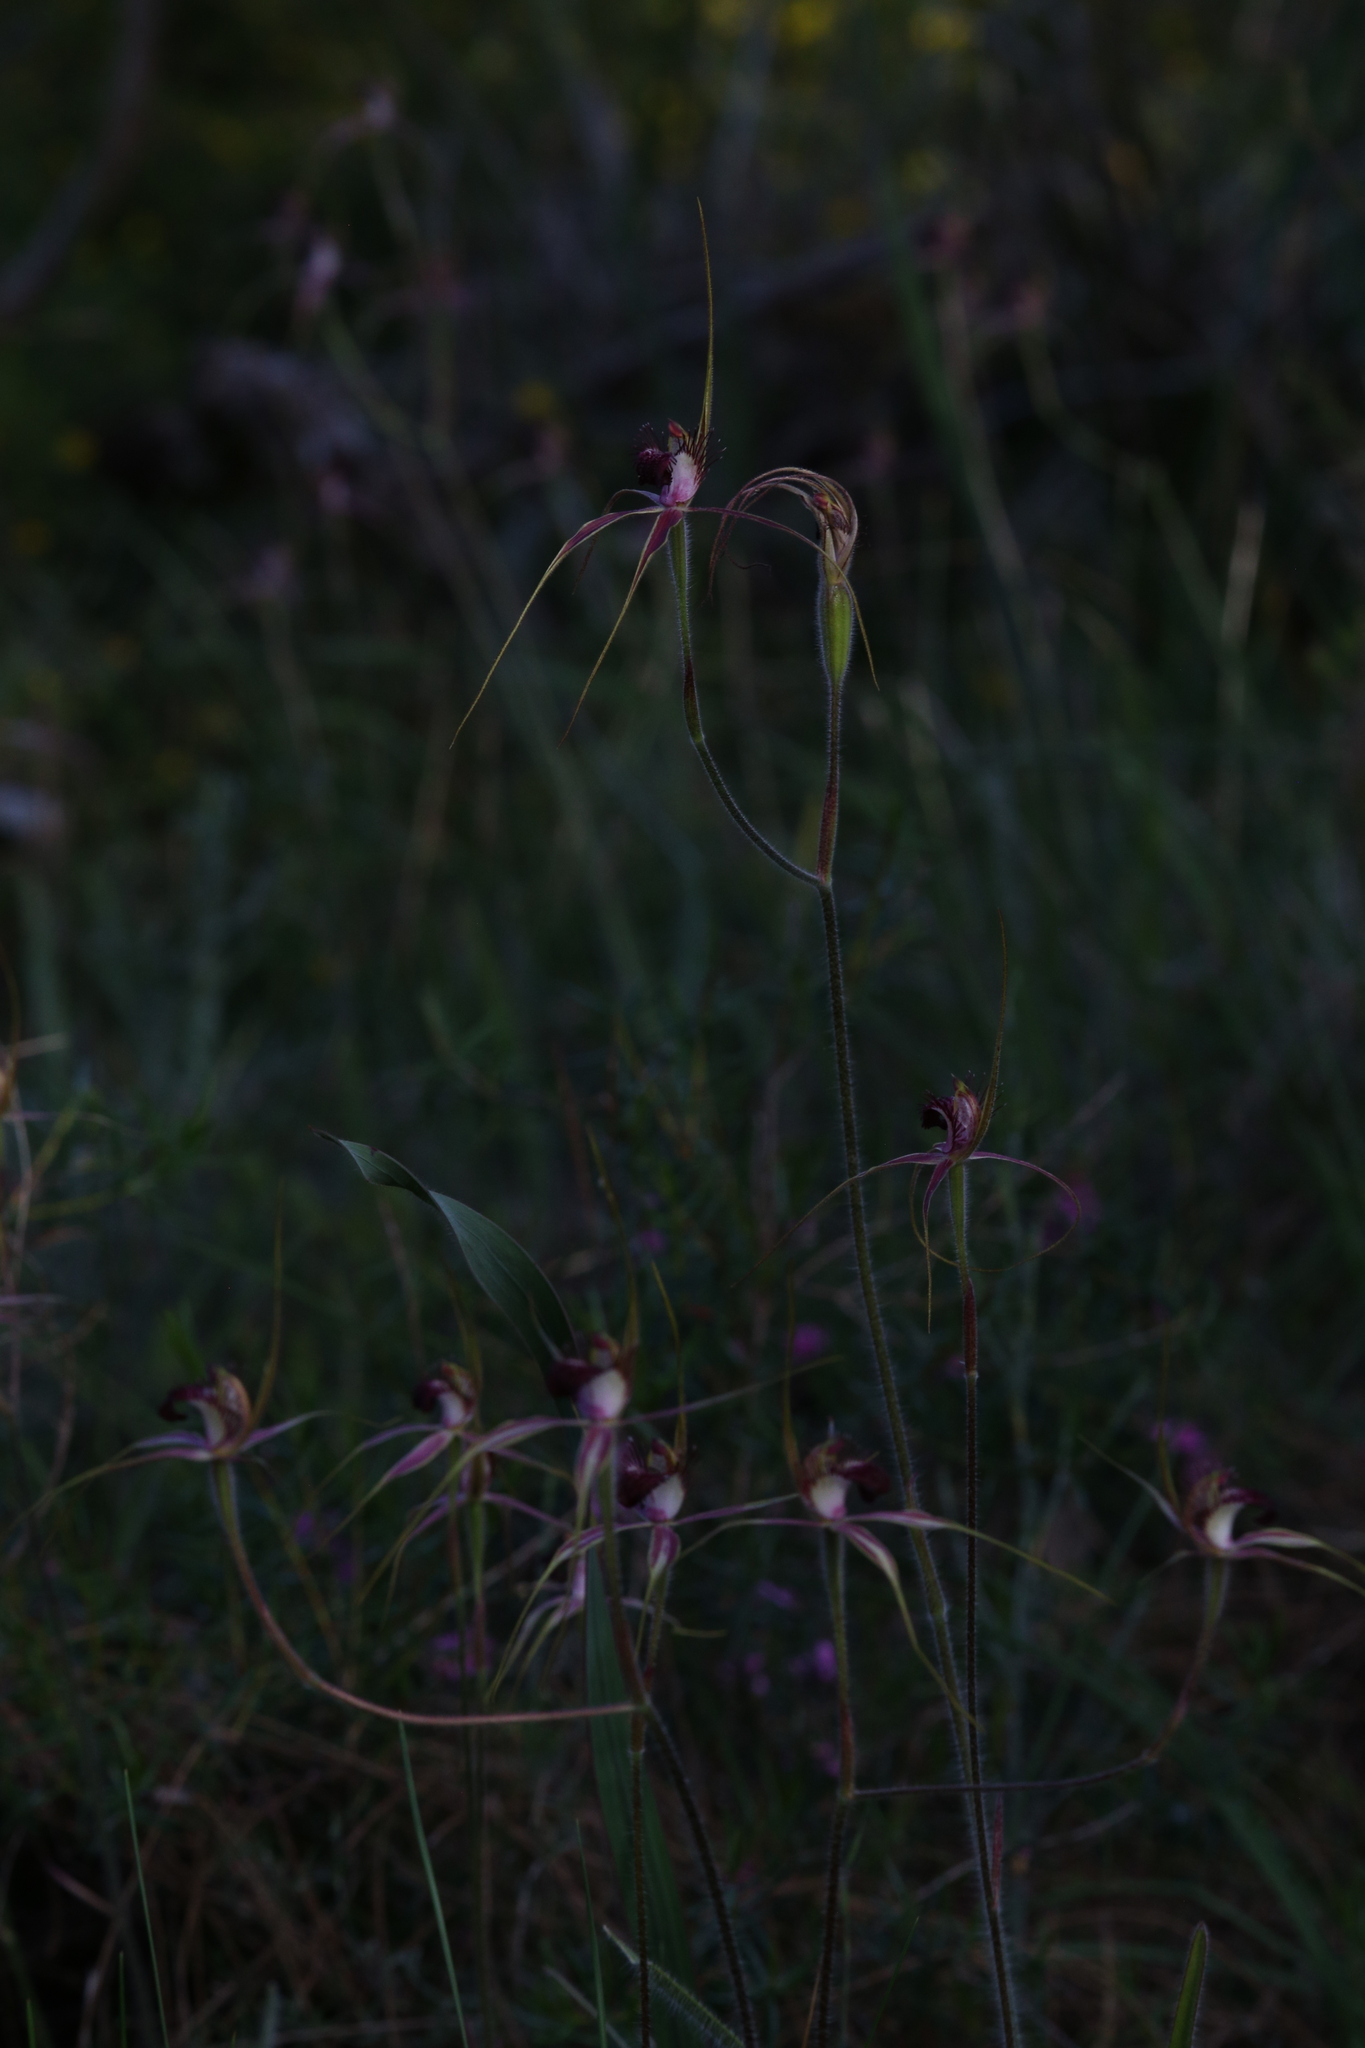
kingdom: Plantae
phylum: Tracheophyta
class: Liliopsida
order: Asparagales
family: Orchidaceae
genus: Caladenia
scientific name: Caladenia arenicola
